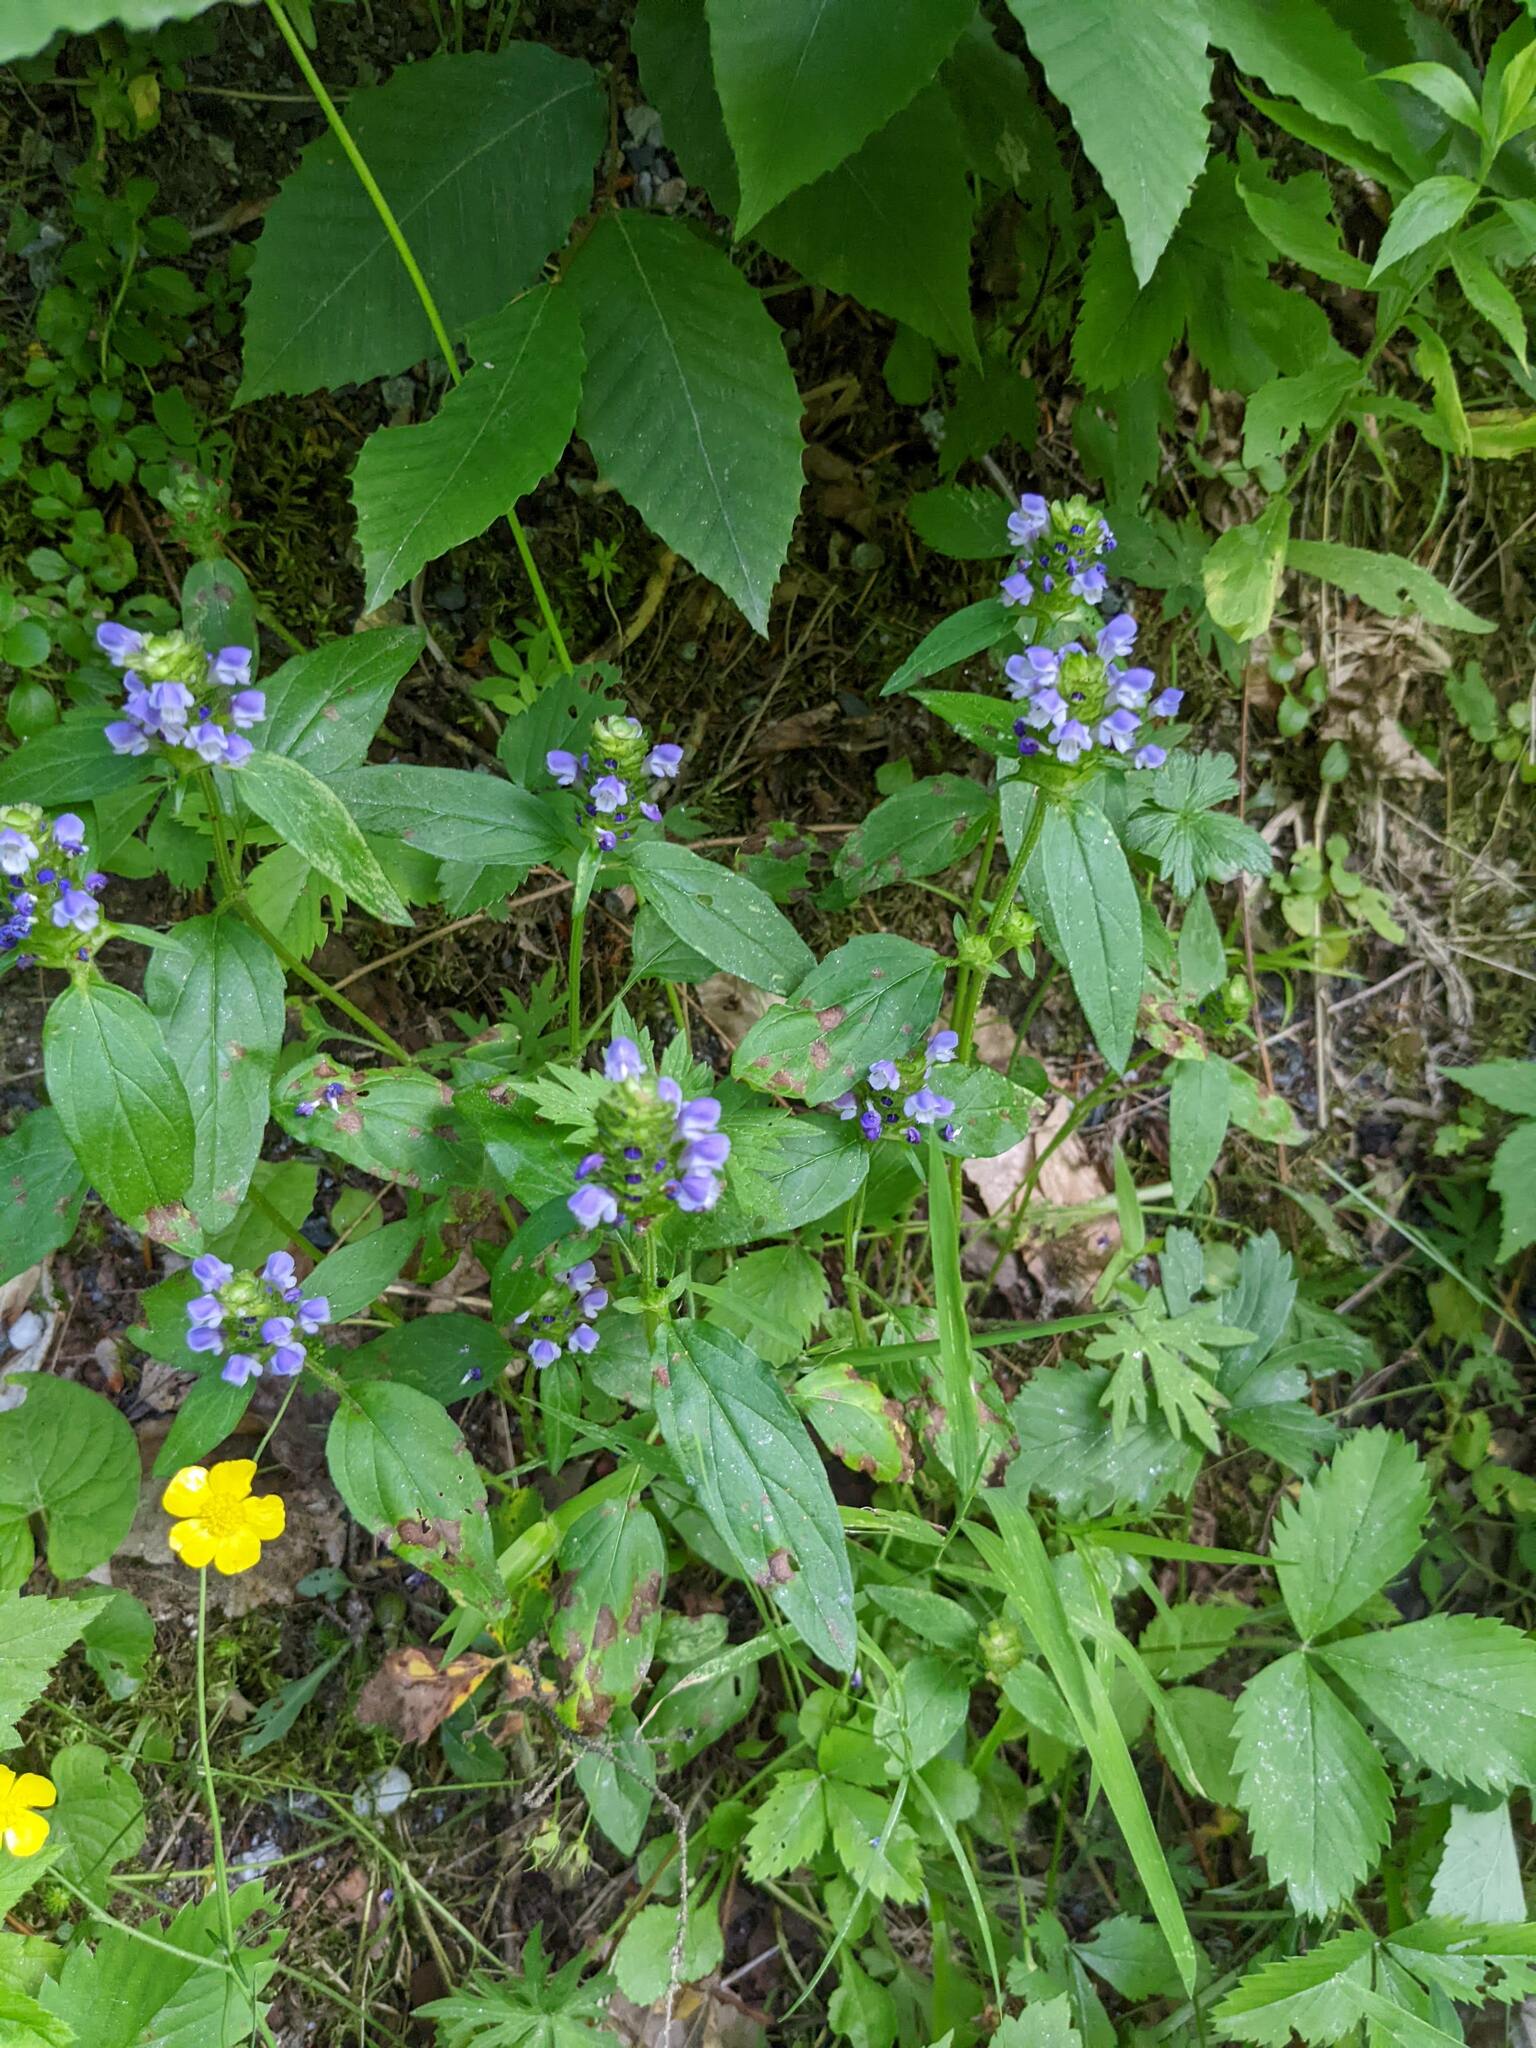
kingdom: Plantae
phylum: Tracheophyta
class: Magnoliopsida
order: Lamiales
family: Lamiaceae
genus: Prunella
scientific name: Prunella vulgaris
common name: Heal-all
